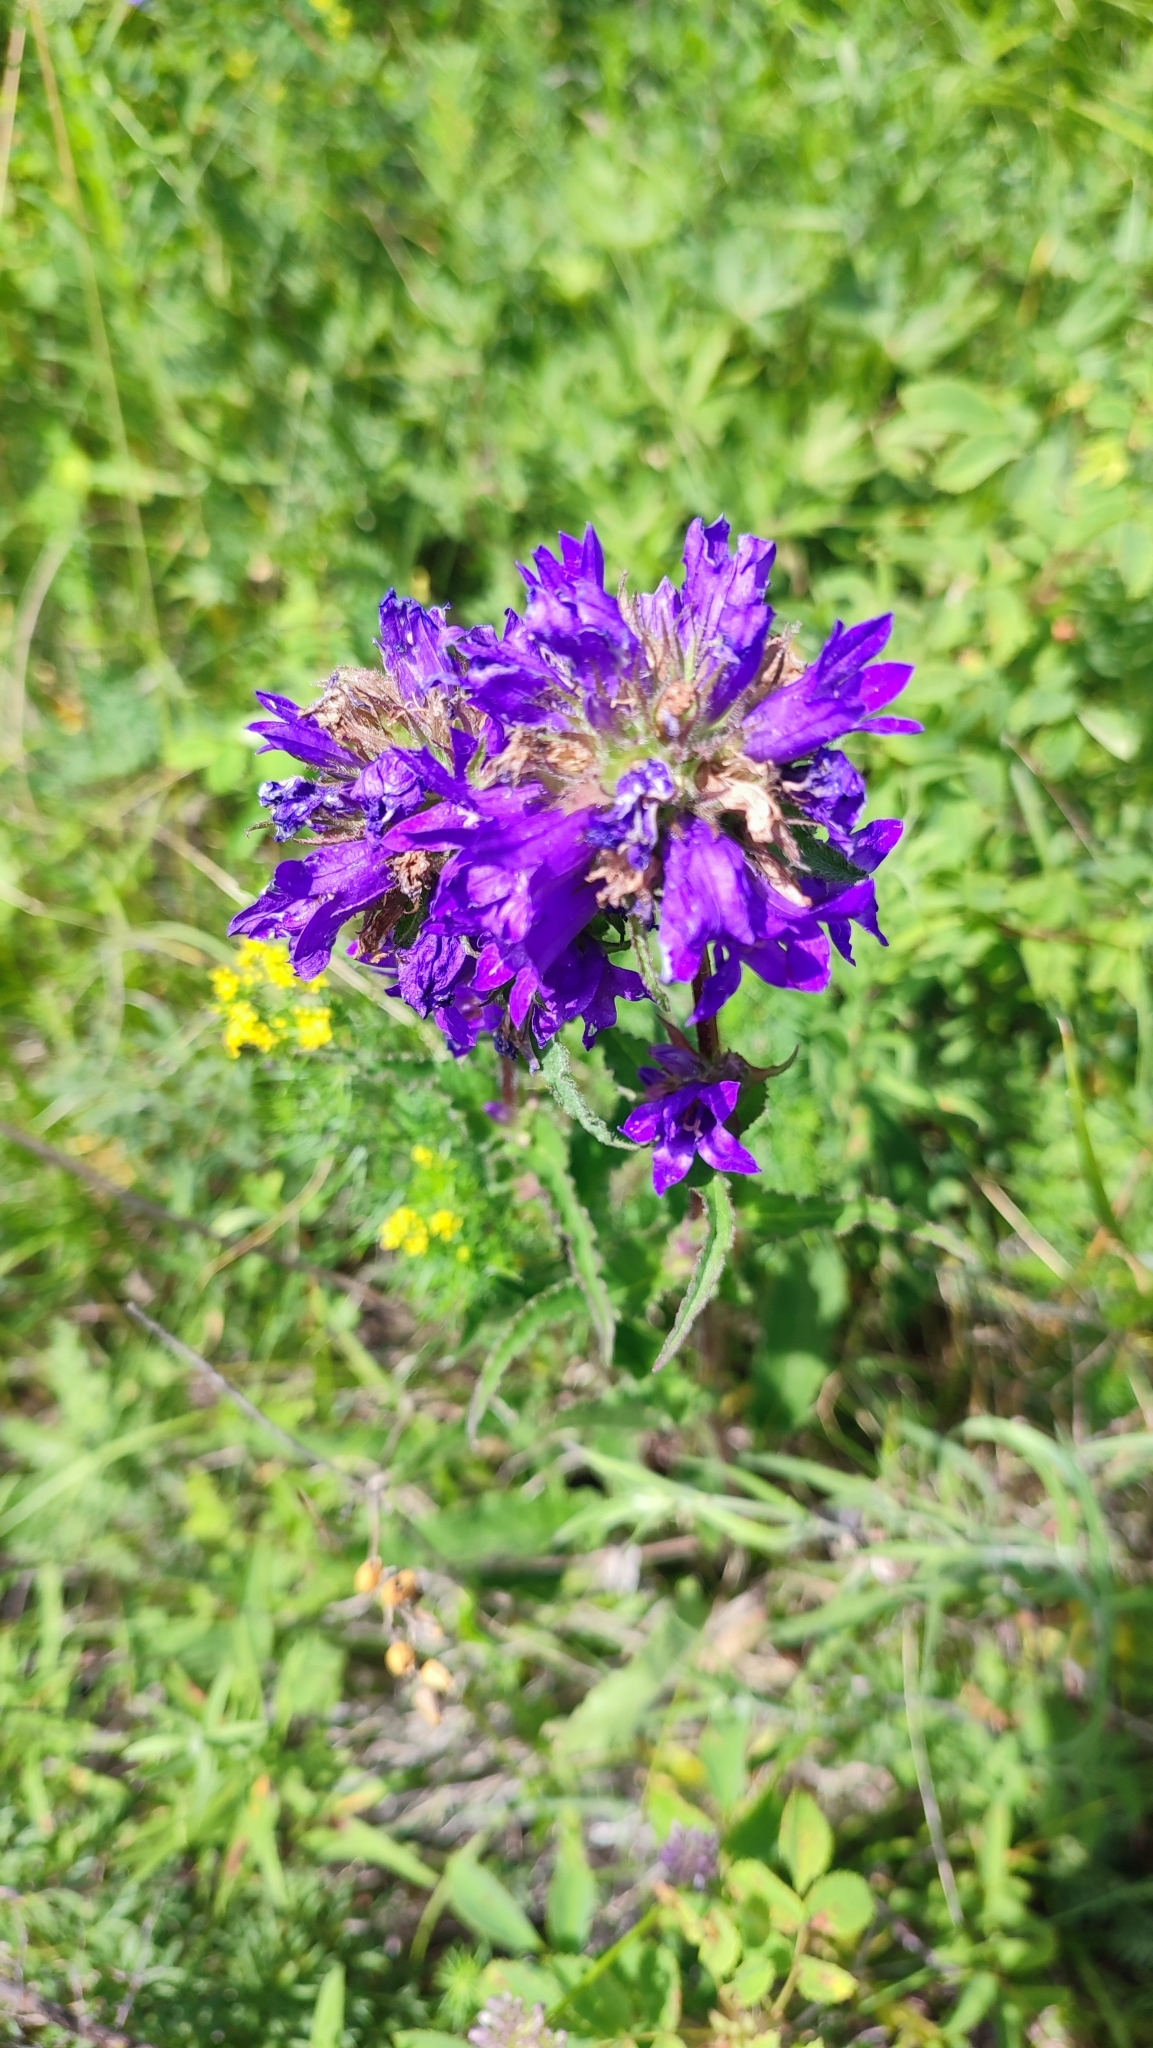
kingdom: Plantae
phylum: Tracheophyta
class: Magnoliopsida
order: Asterales
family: Campanulaceae
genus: Campanula
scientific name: Campanula glomerata
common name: Clustered bellflower
